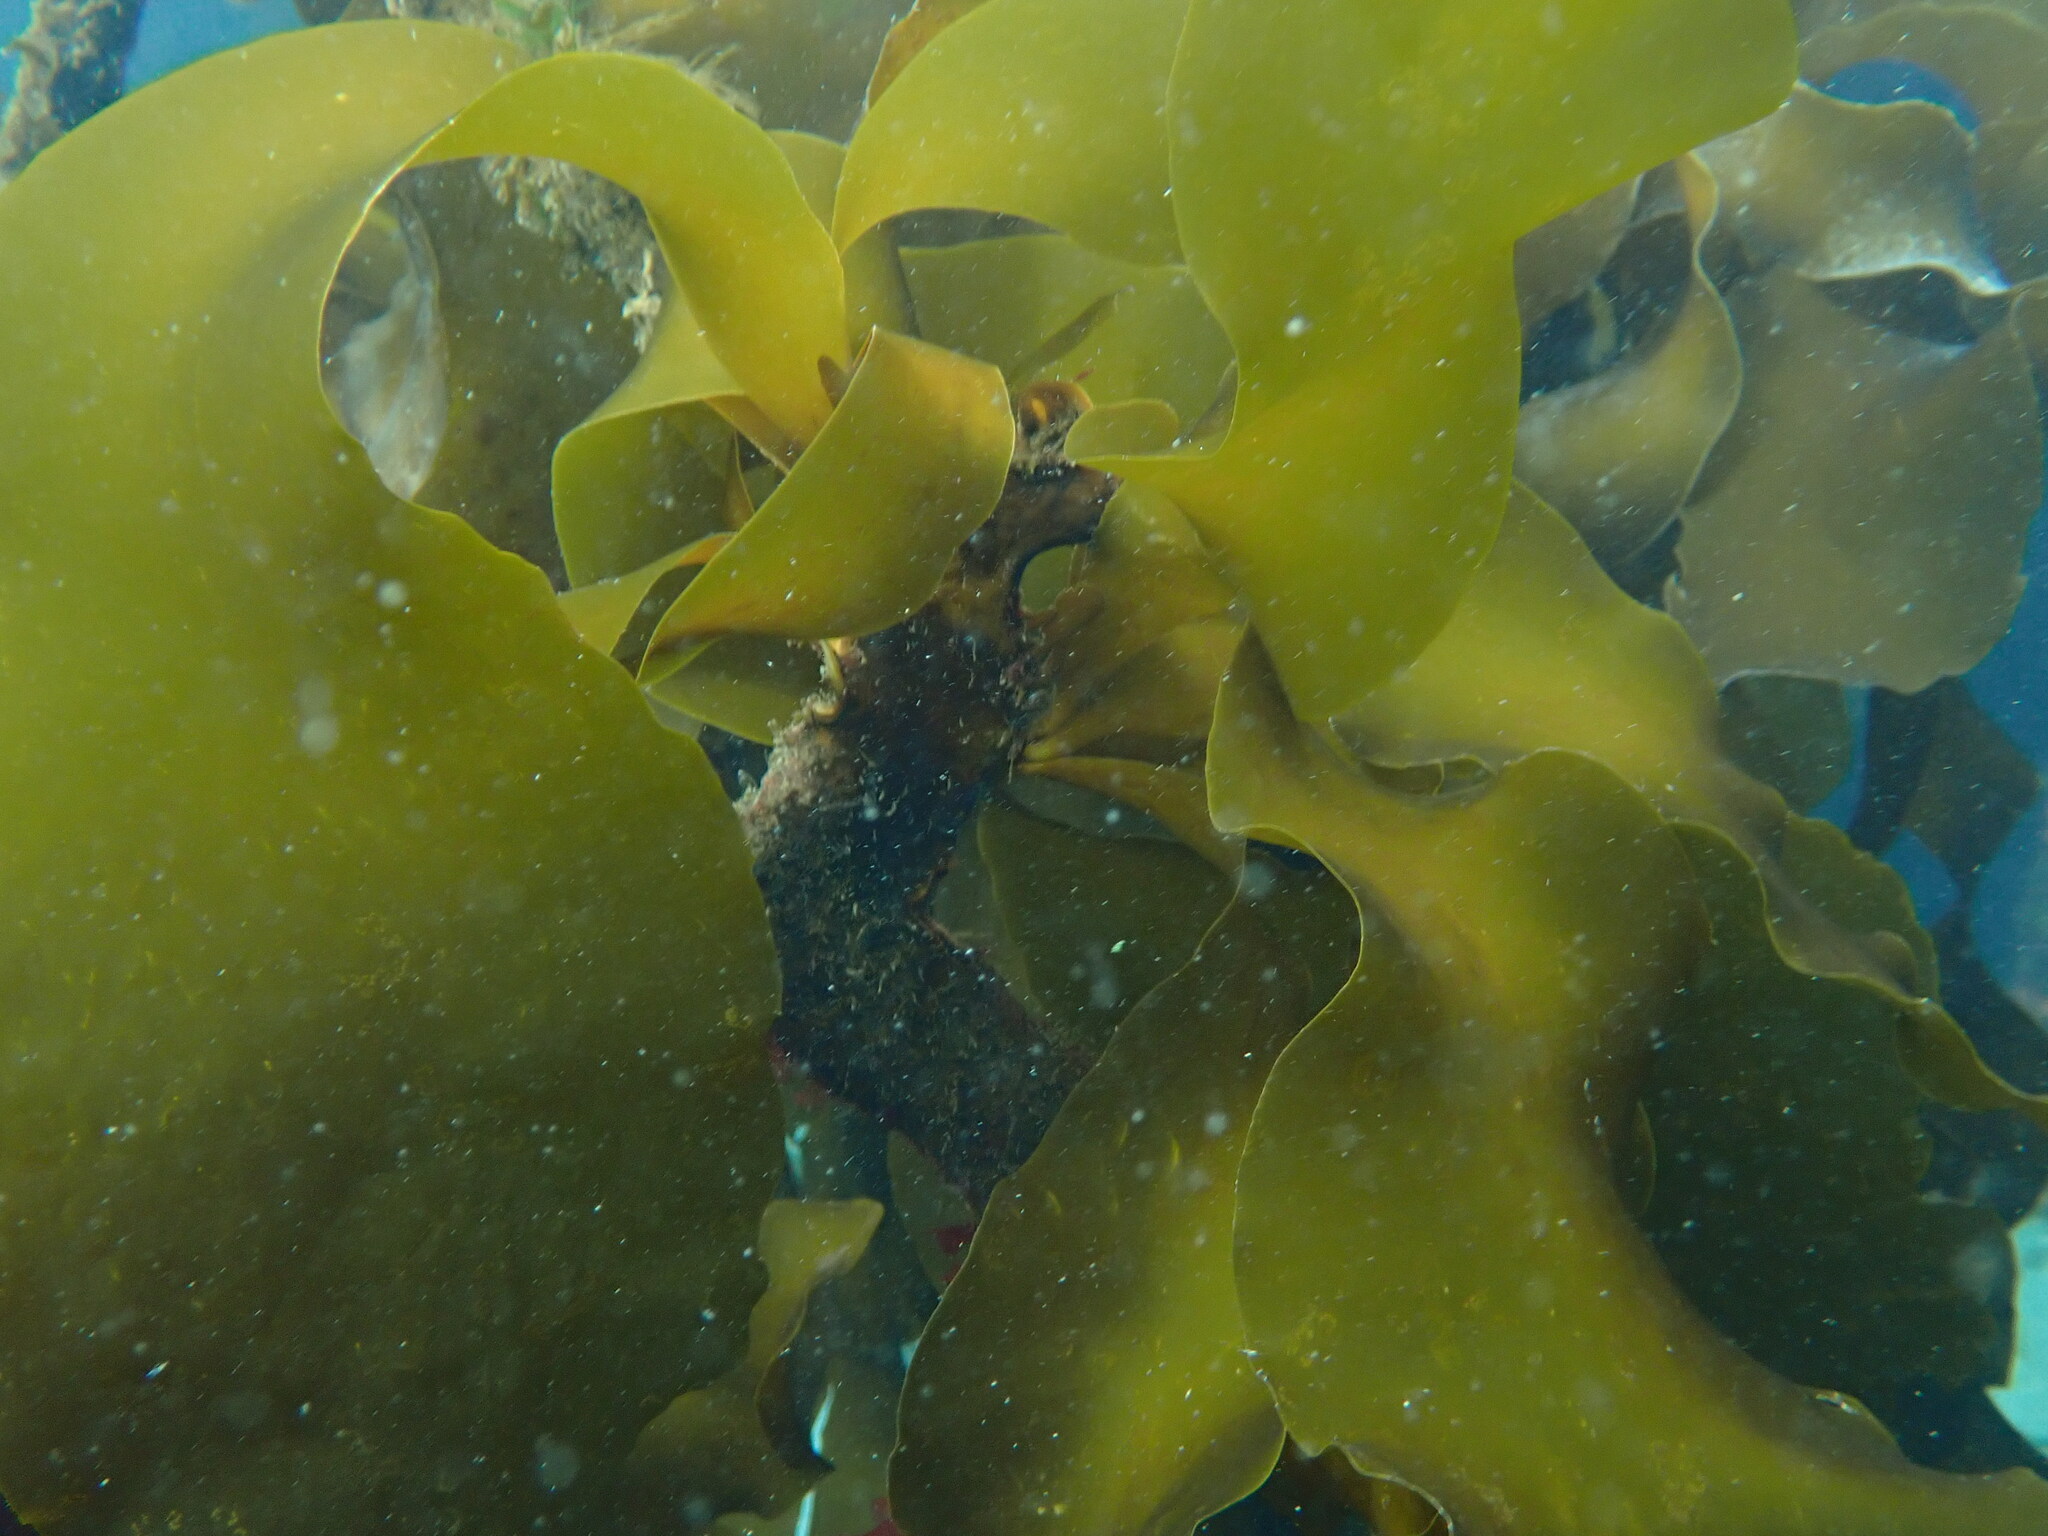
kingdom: Chromista
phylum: Ochrophyta
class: Phaeophyceae
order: Laminariales
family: Alariaceae
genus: Pterygophora
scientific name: Pterygophora californica
